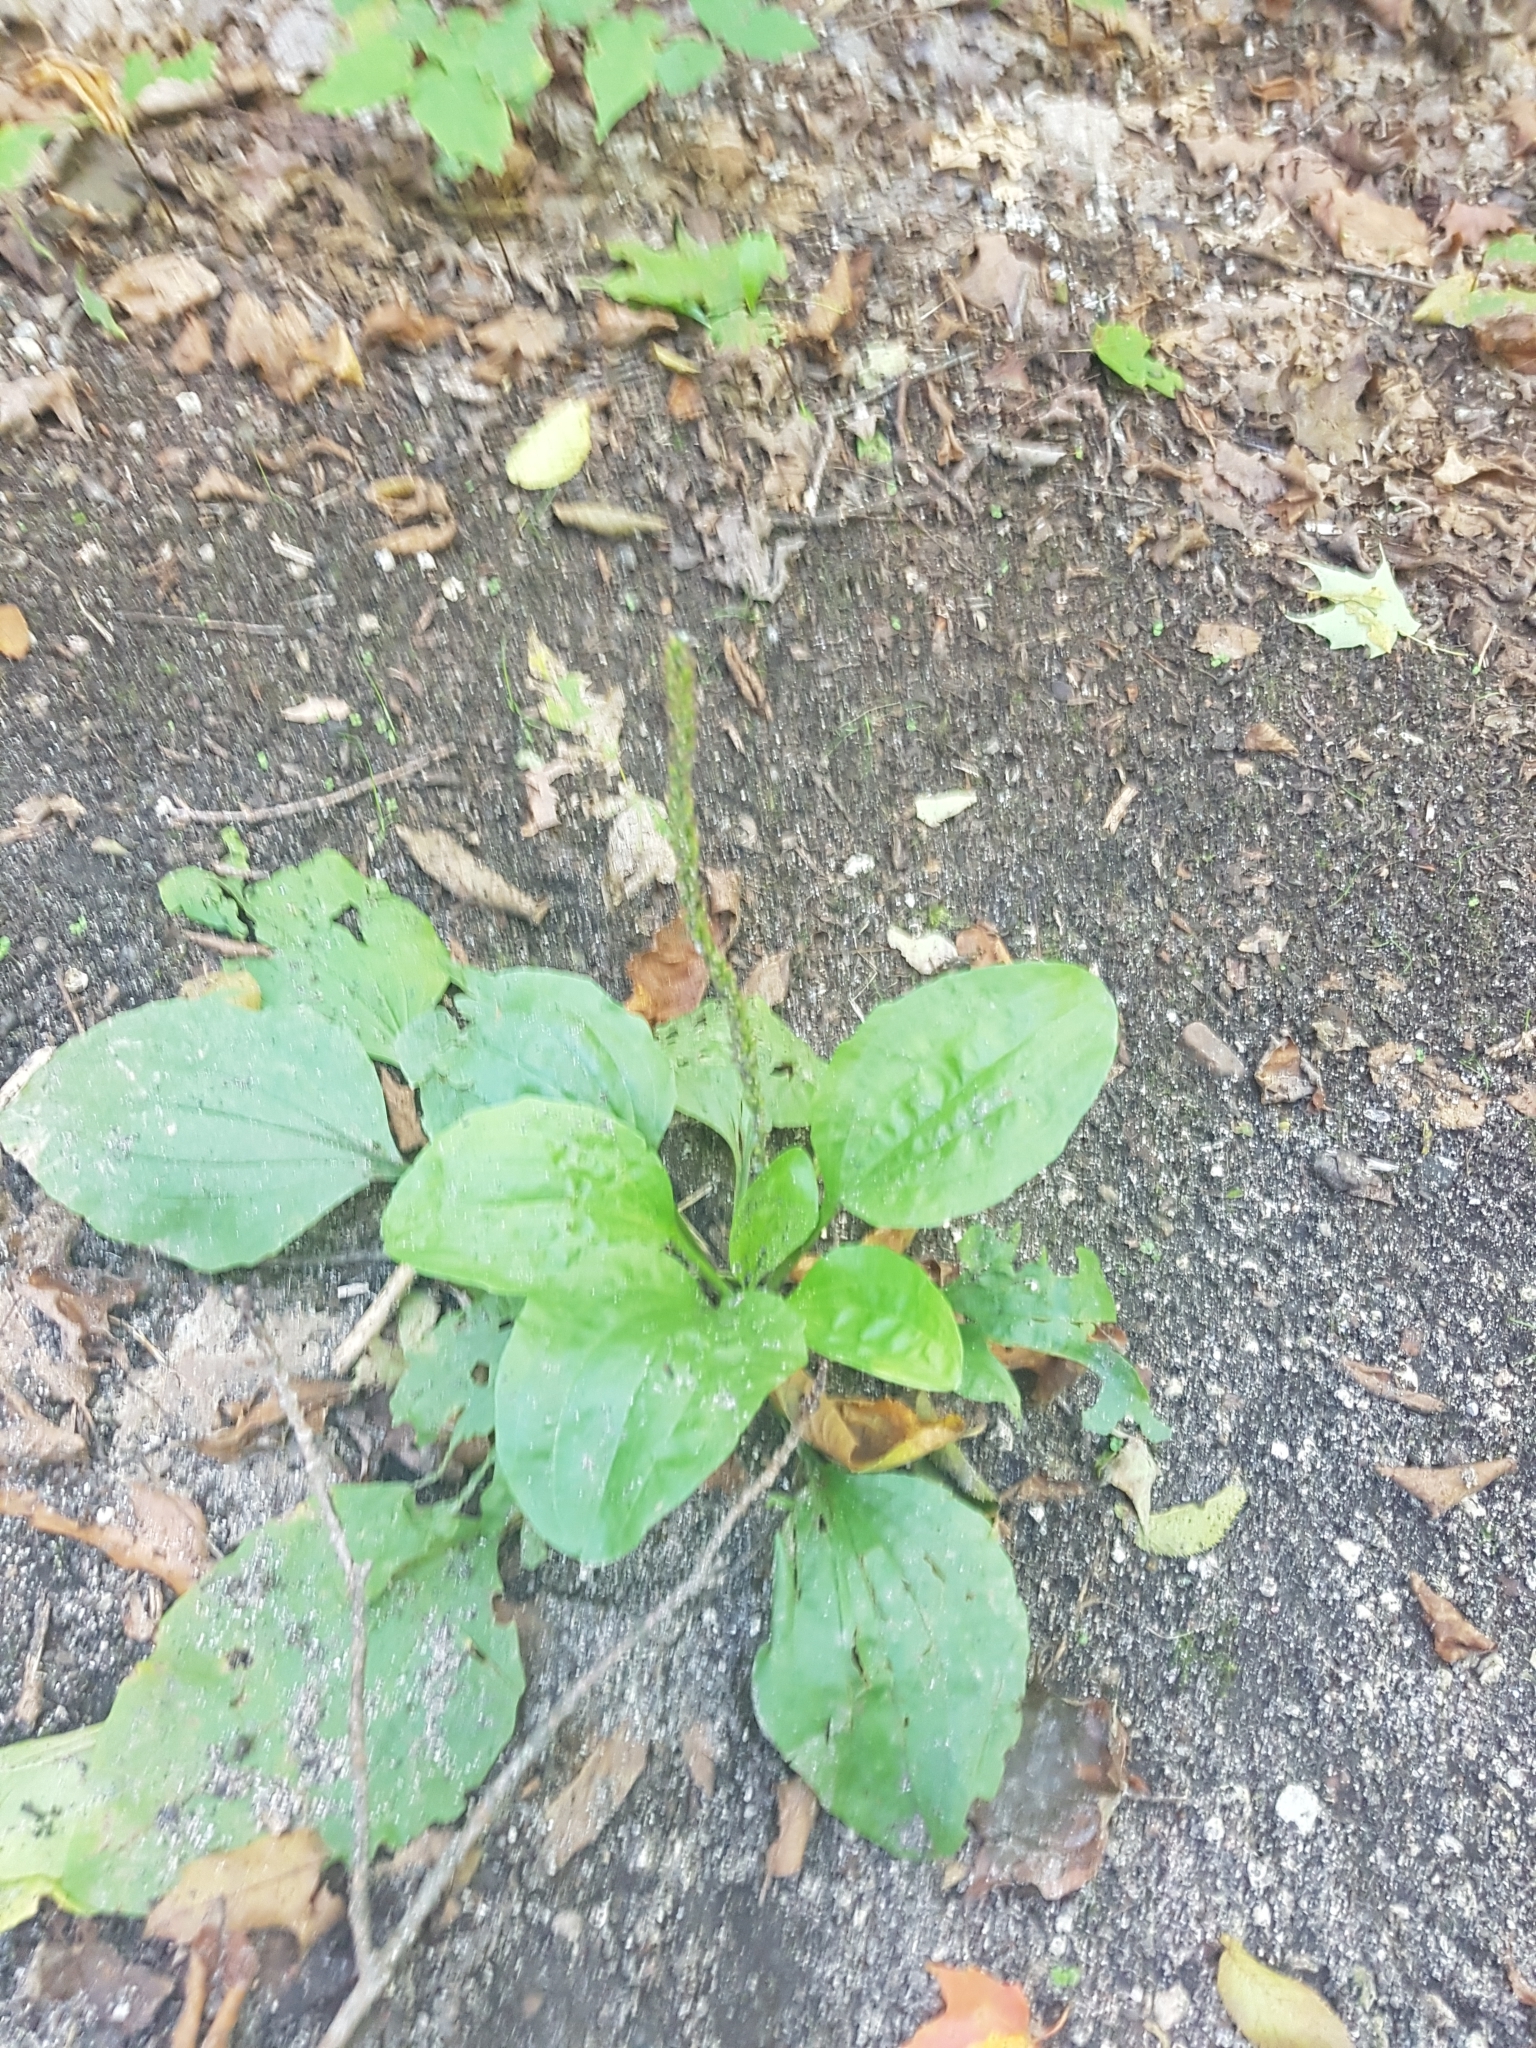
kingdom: Plantae
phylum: Tracheophyta
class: Magnoliopsida
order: Lamiales
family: Plantaginaceae
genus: Plantago
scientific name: Plantago major
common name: Common plantain
